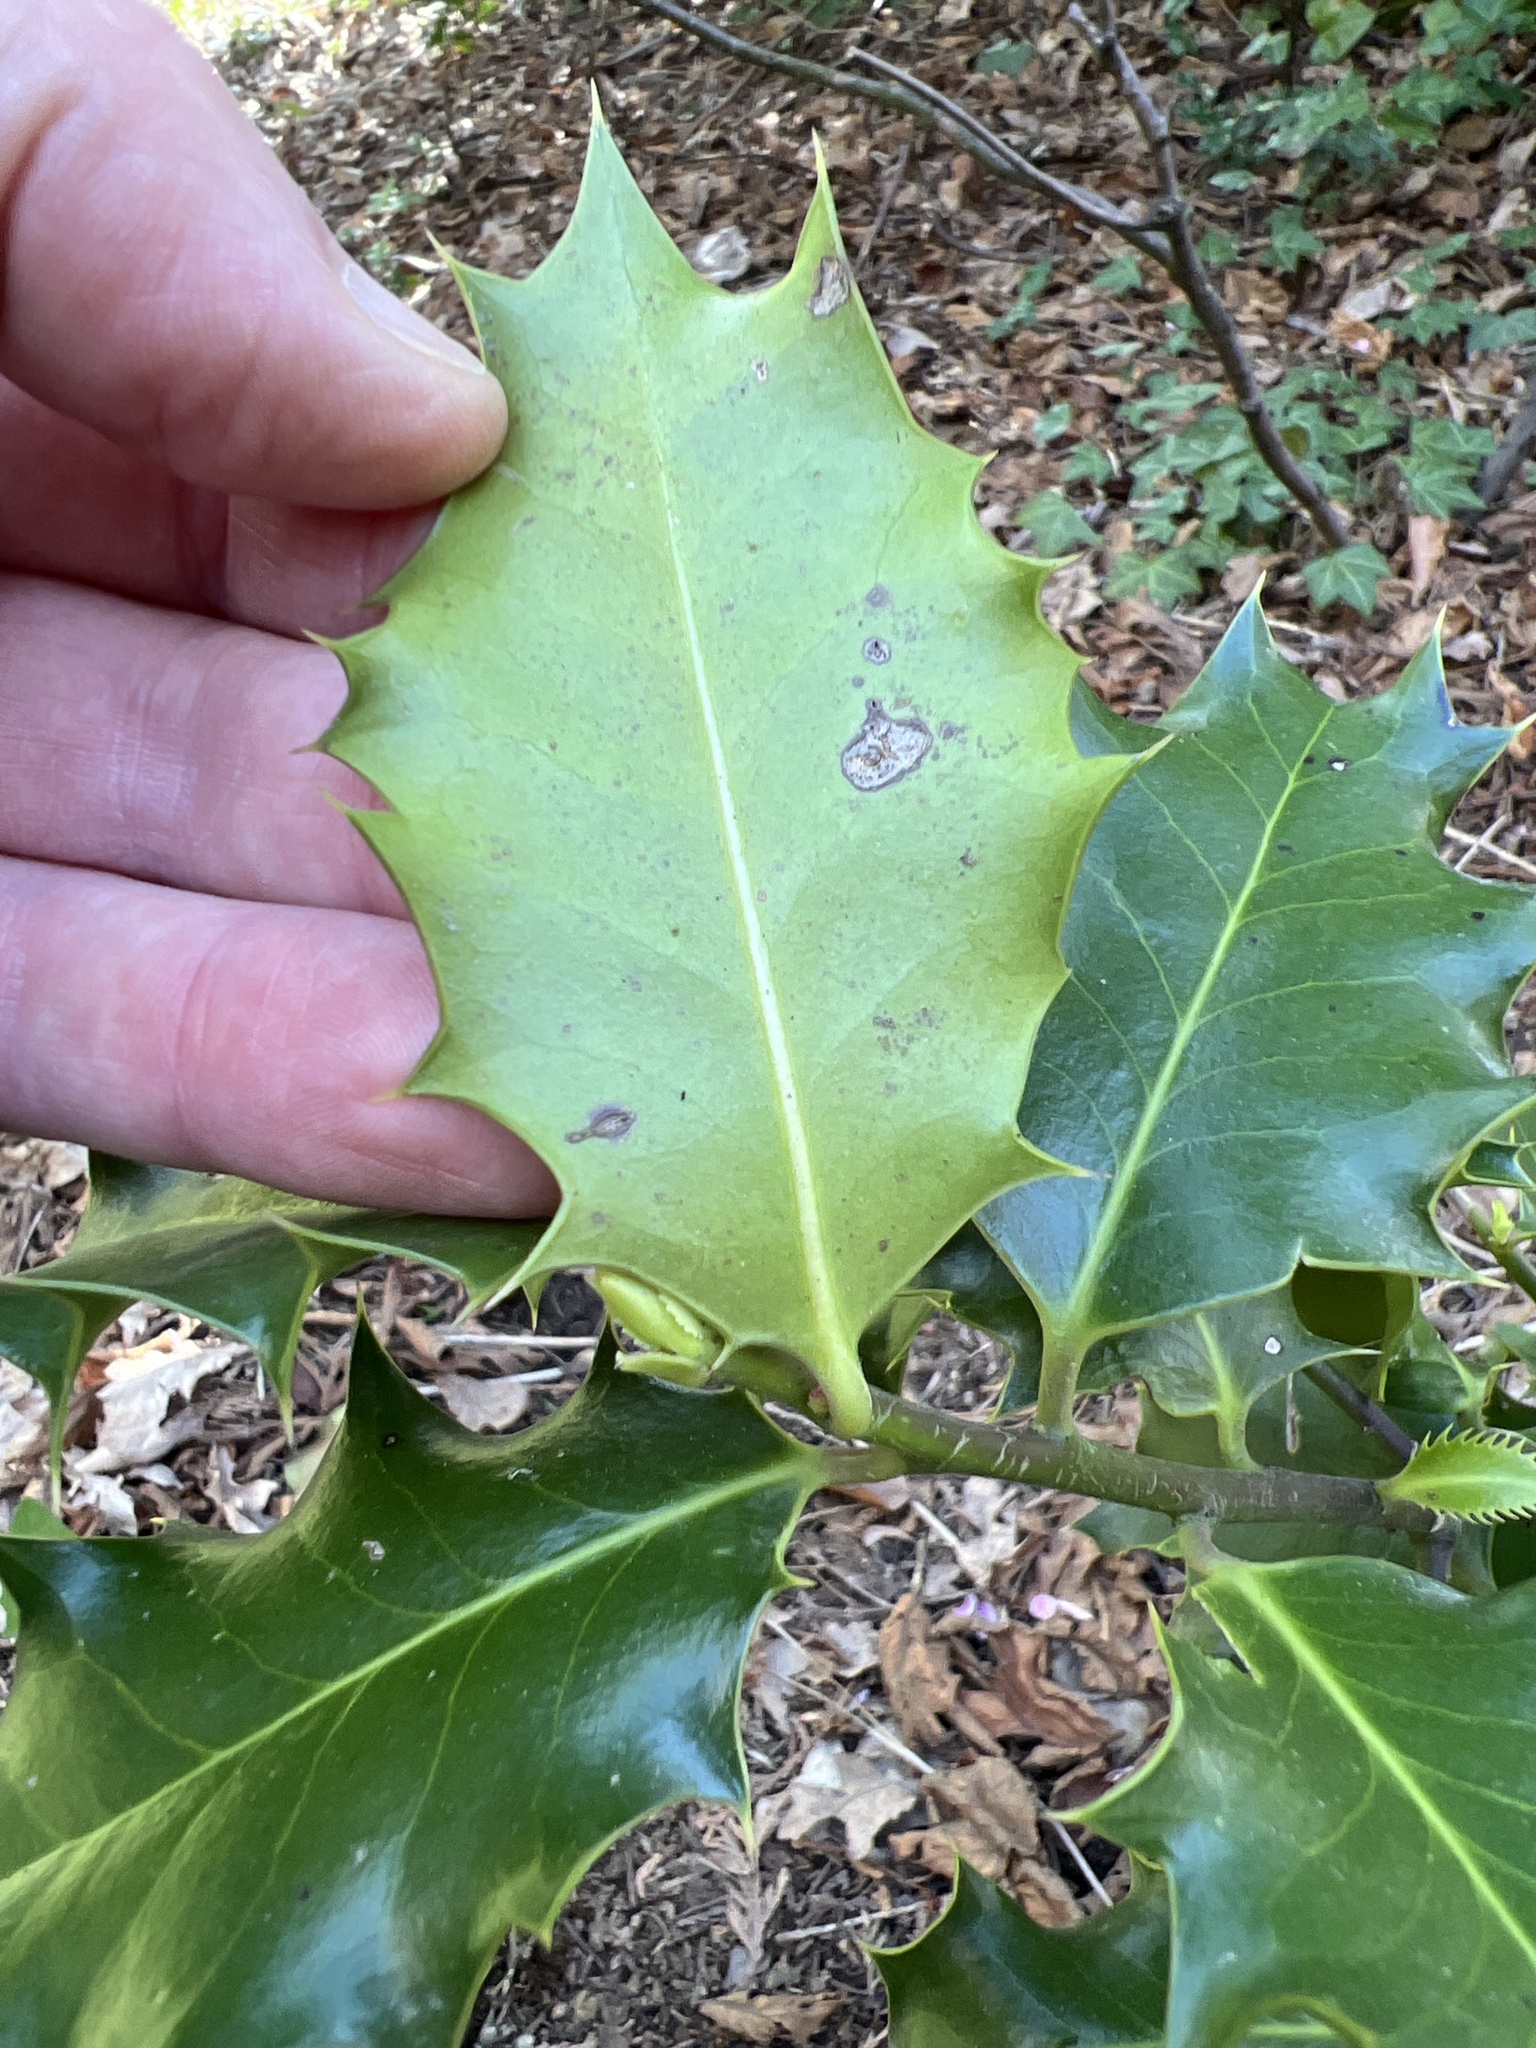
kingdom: Plantae
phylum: Tracheophyta
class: Magnoliopsida
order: Aquifoliales
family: Aquifoliaceae
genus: Ilex
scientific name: Ilex aquifolium
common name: English holly
